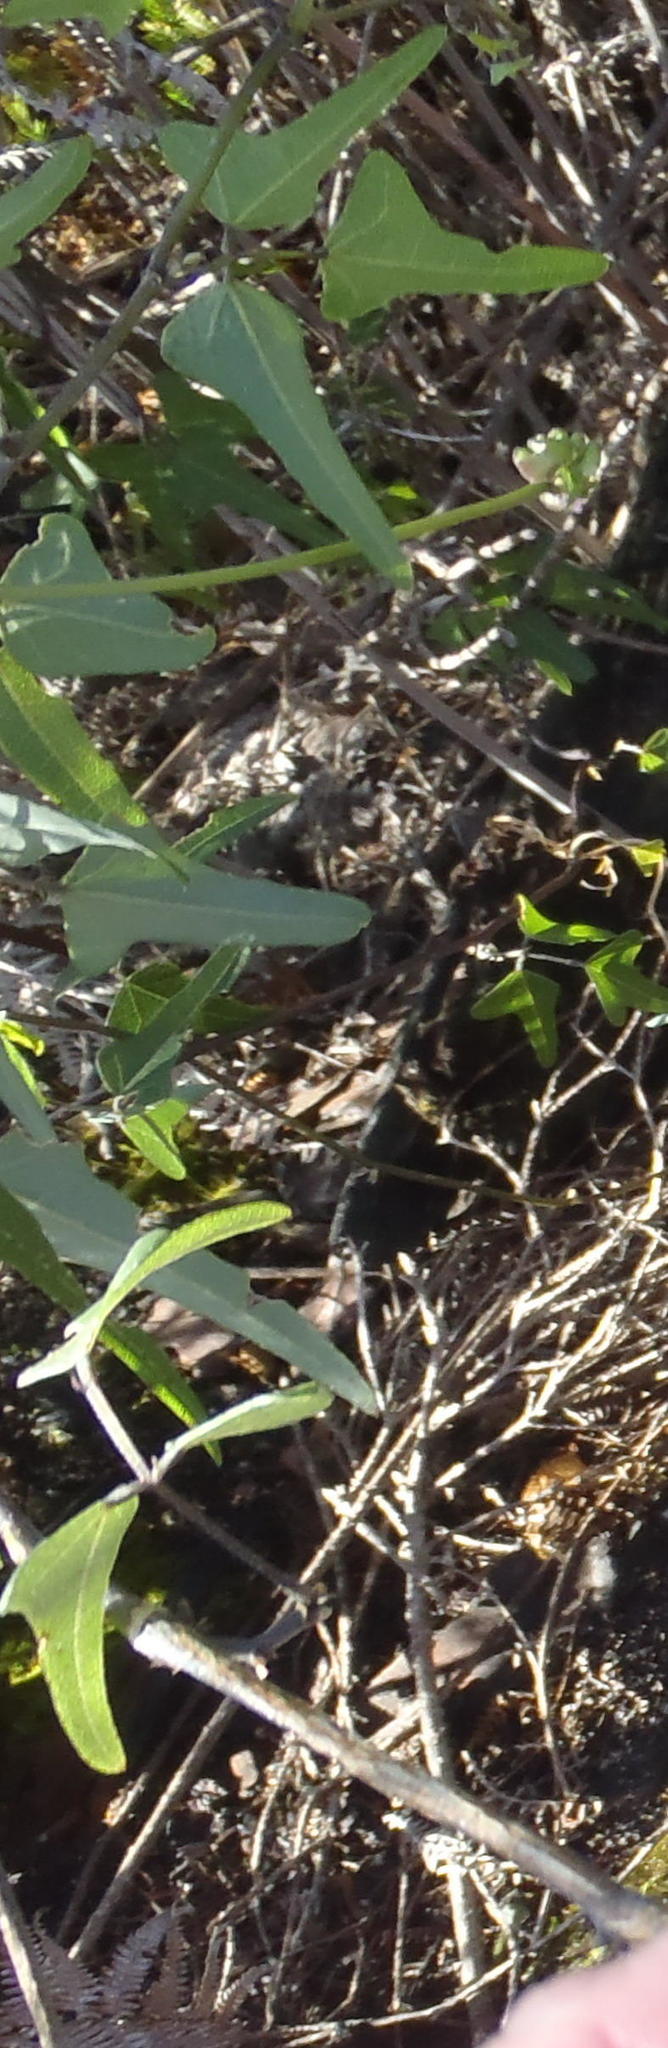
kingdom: Plantae
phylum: Tracheophyta
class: Magnoliopsida
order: Fabales
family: Fabaceae
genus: Dipogon
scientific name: Dipogon lignosus
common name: Okie bean
